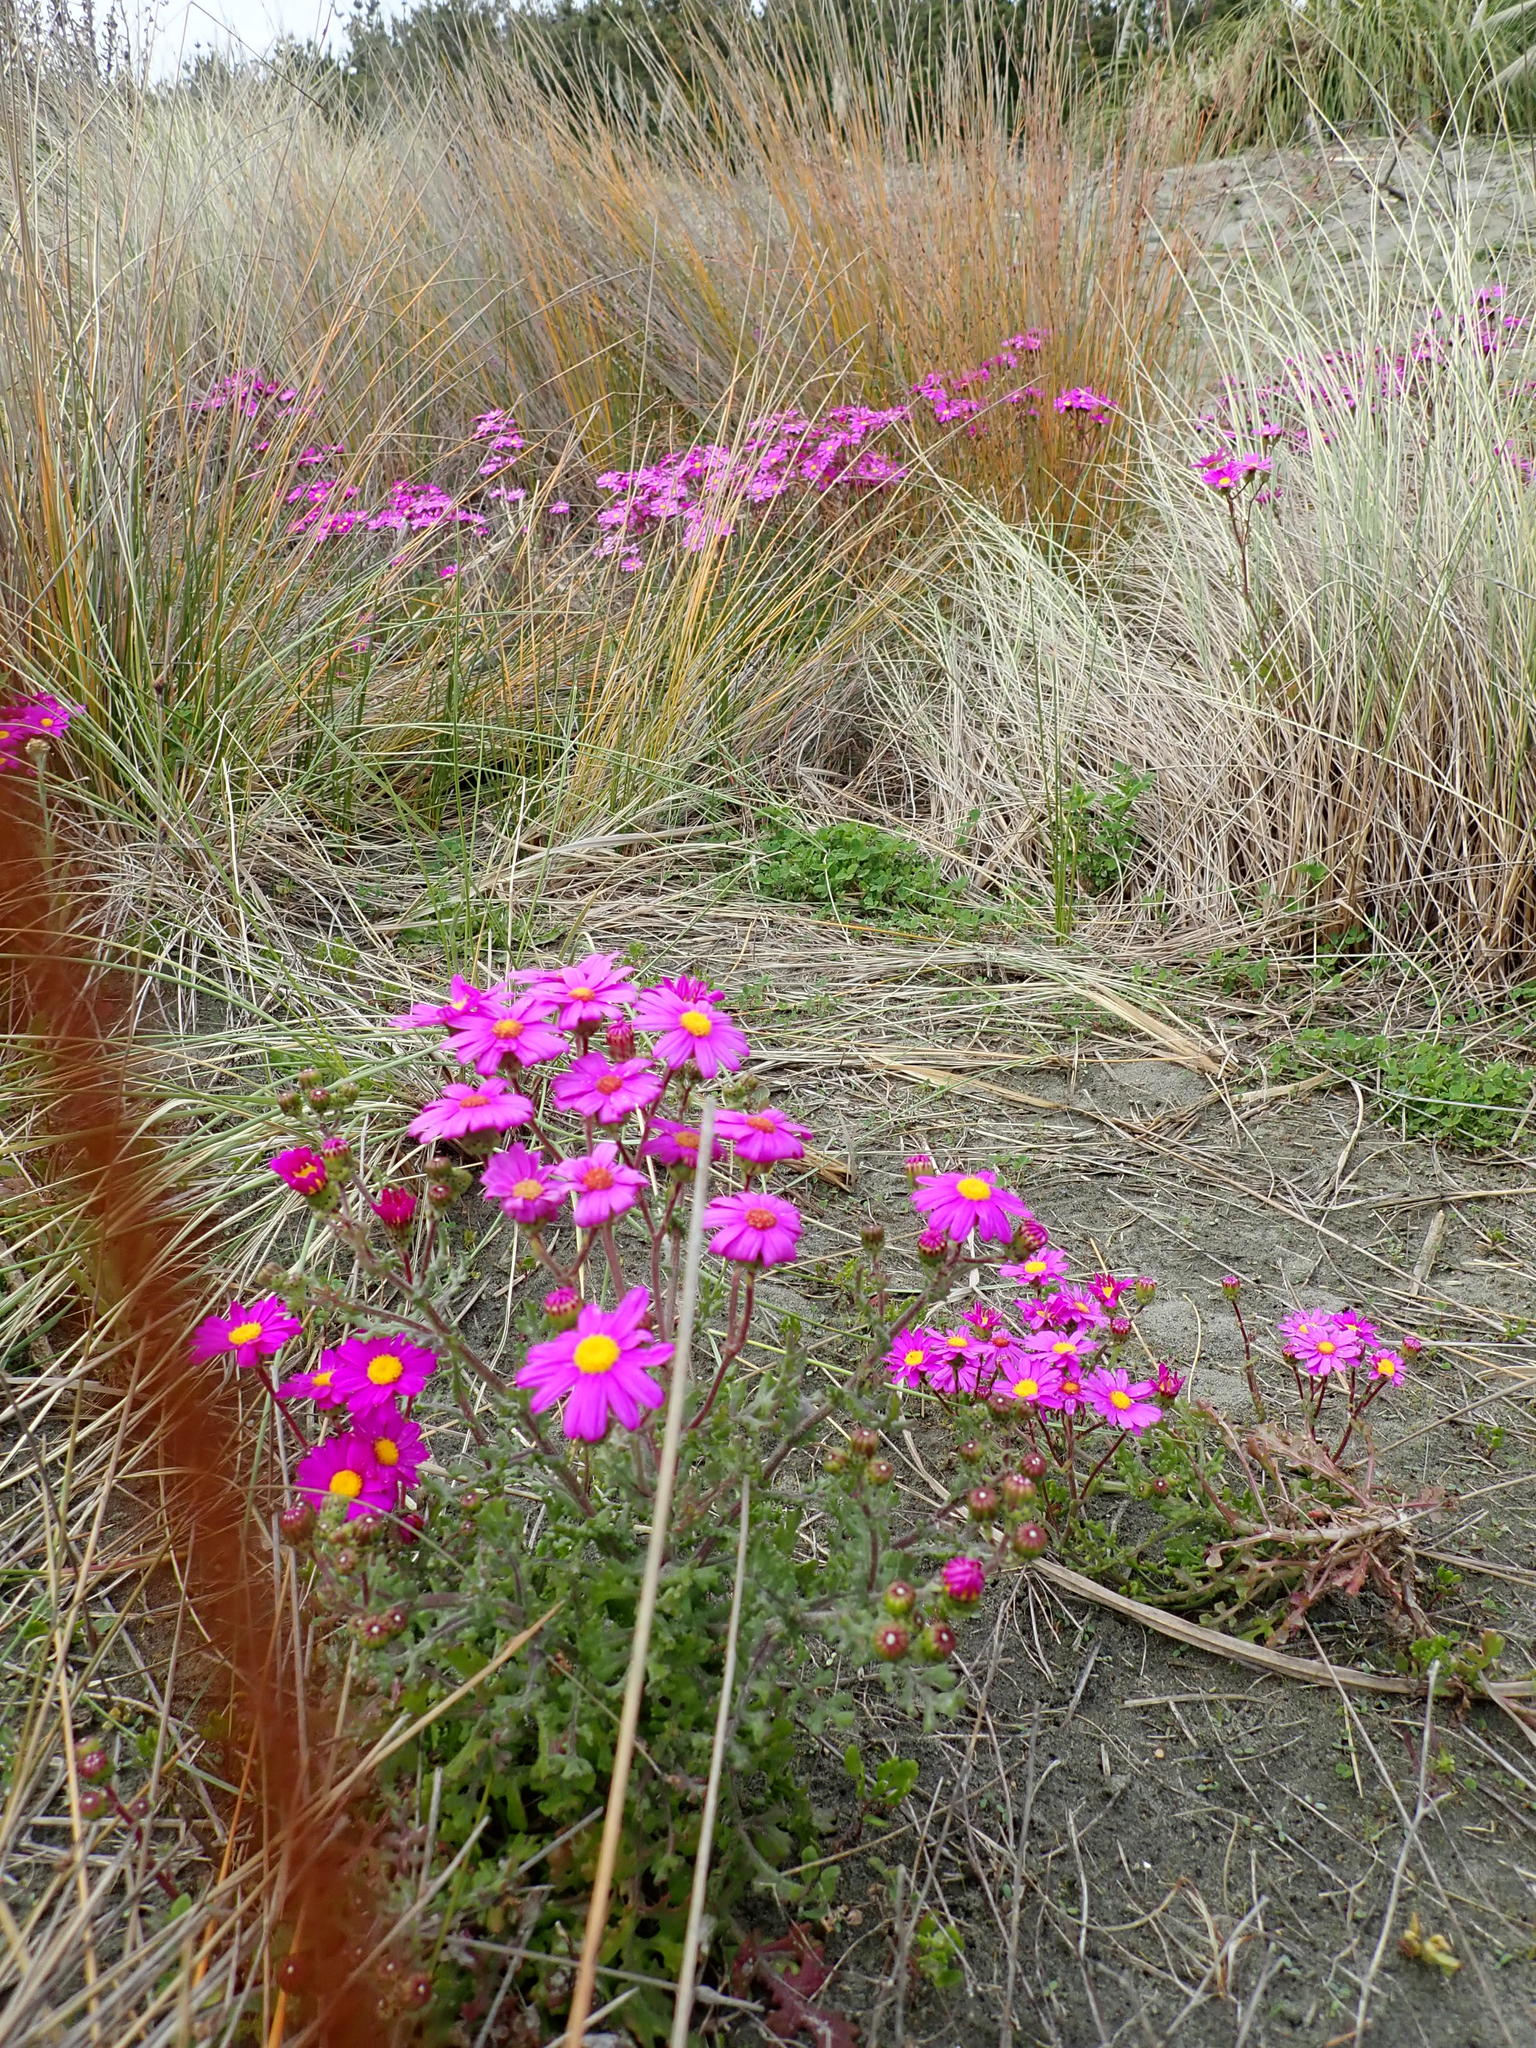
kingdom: Plantae
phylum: Tracheophyta
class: Magnoliopsida
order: Asterales
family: Asteraceae
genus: Senecio
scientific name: Senecio elegans
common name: Purple groundsel
